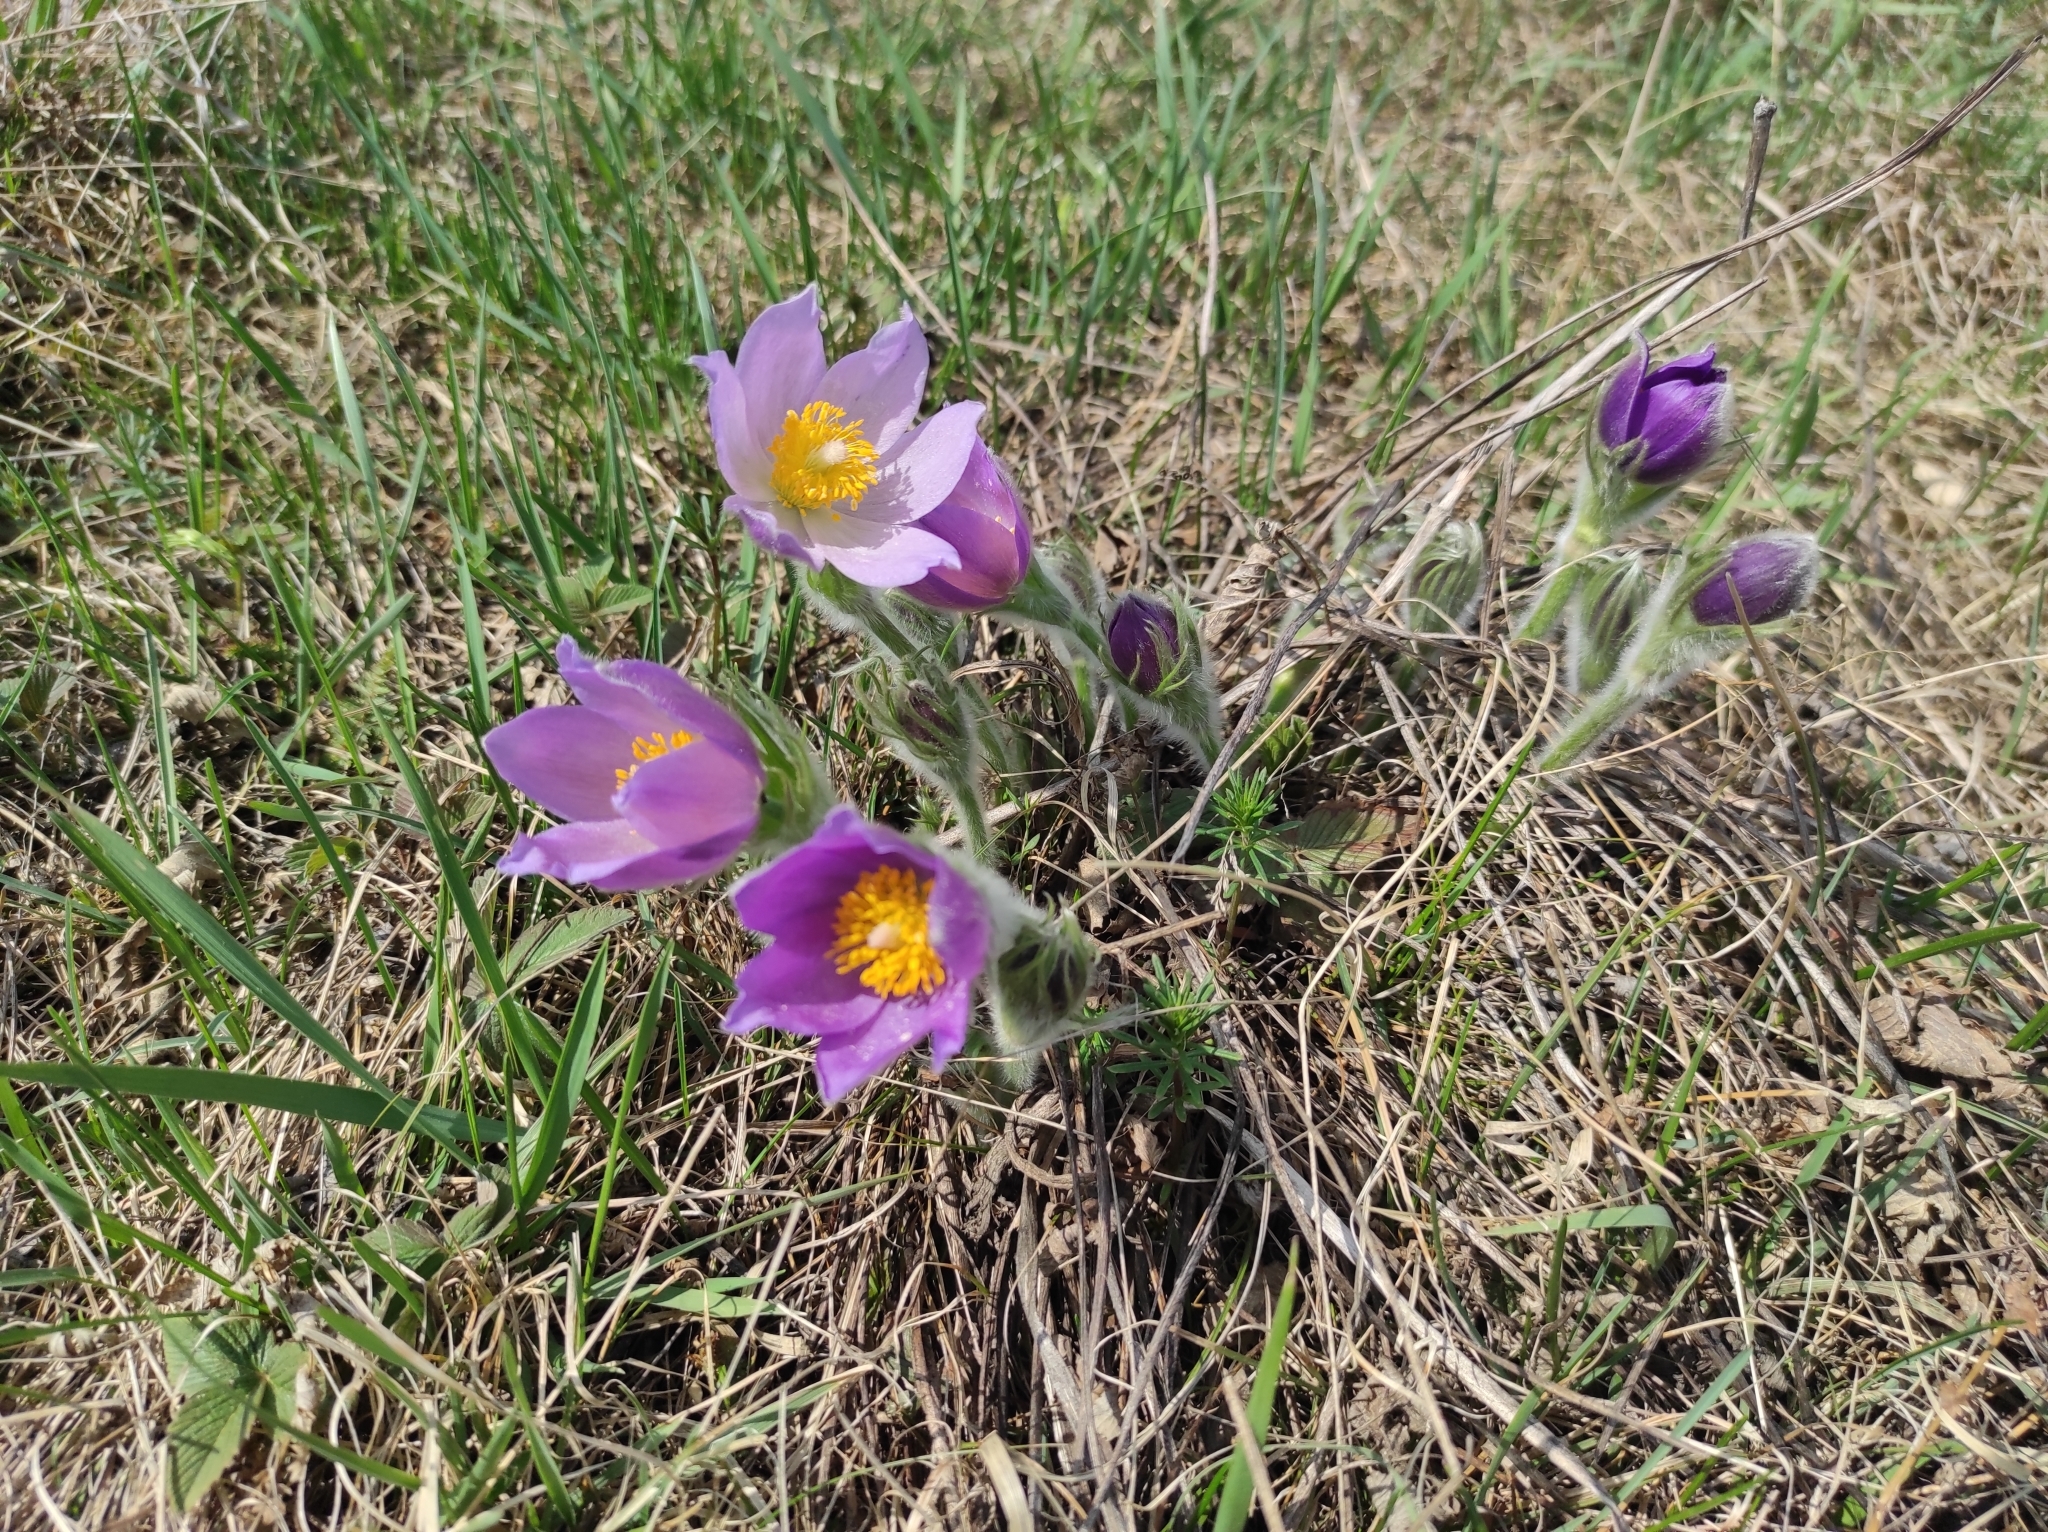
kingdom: Plantae
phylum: Tracheophyta
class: Magnoliopsida
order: Ranunculales
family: Ranunculaceae
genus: Pulsatilla
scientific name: Pulsatilla patens
